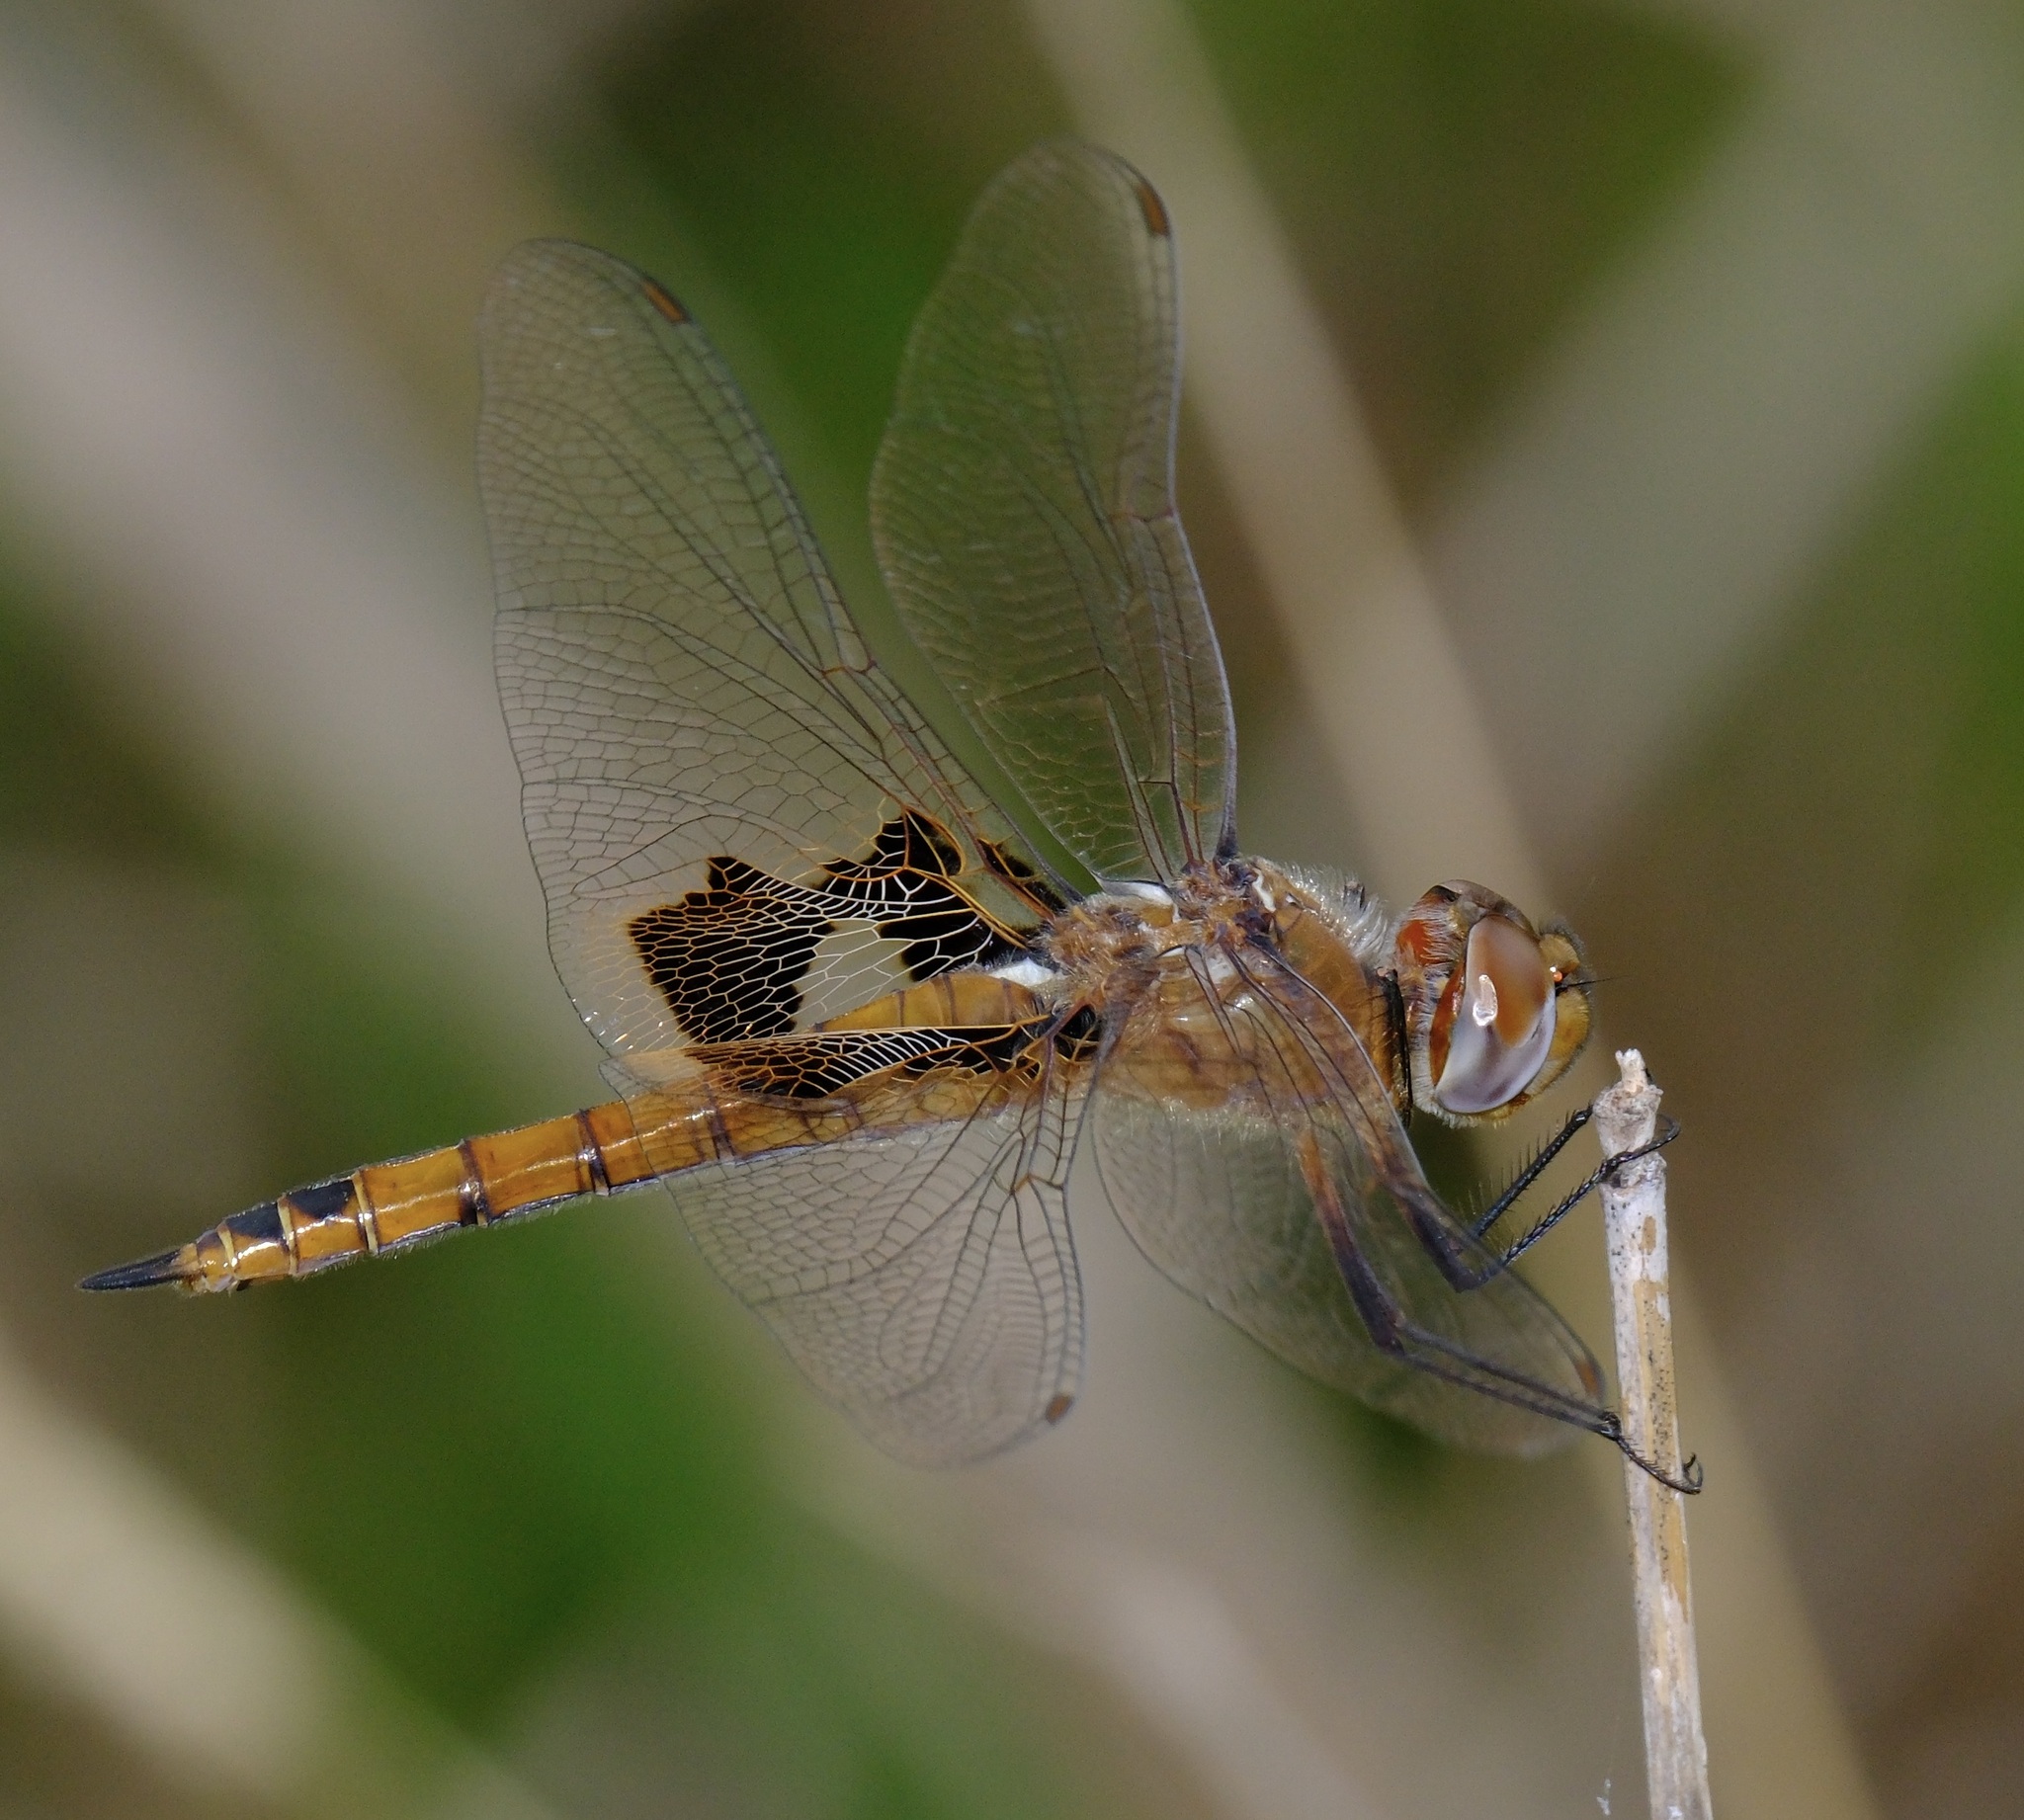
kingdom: Animalia
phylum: Arthropoda
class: Insecta
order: Odonata
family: Libellulidae
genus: Tramea
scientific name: Tramea onusta
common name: Red saddlebags
